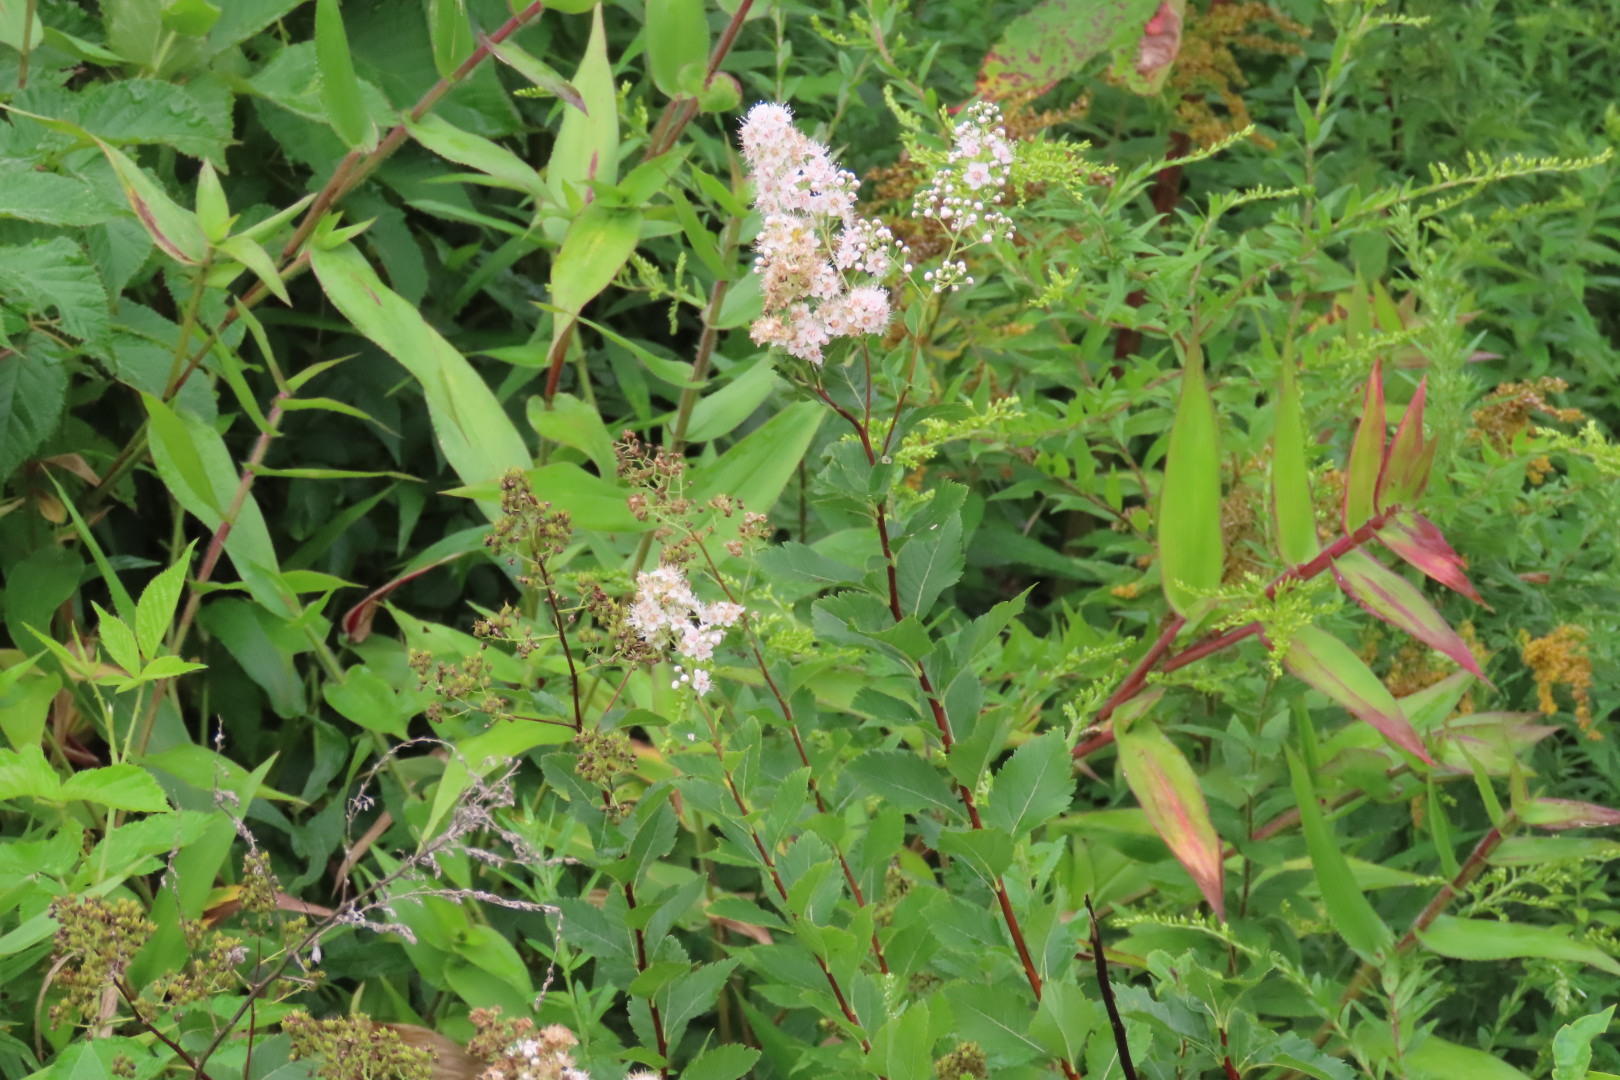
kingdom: Plantae
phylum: Tracheophyta
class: Magnoliopsida
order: Rosales
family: Rosaceae
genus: Spiraea
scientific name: Spiraea alba
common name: Pale bridewort
